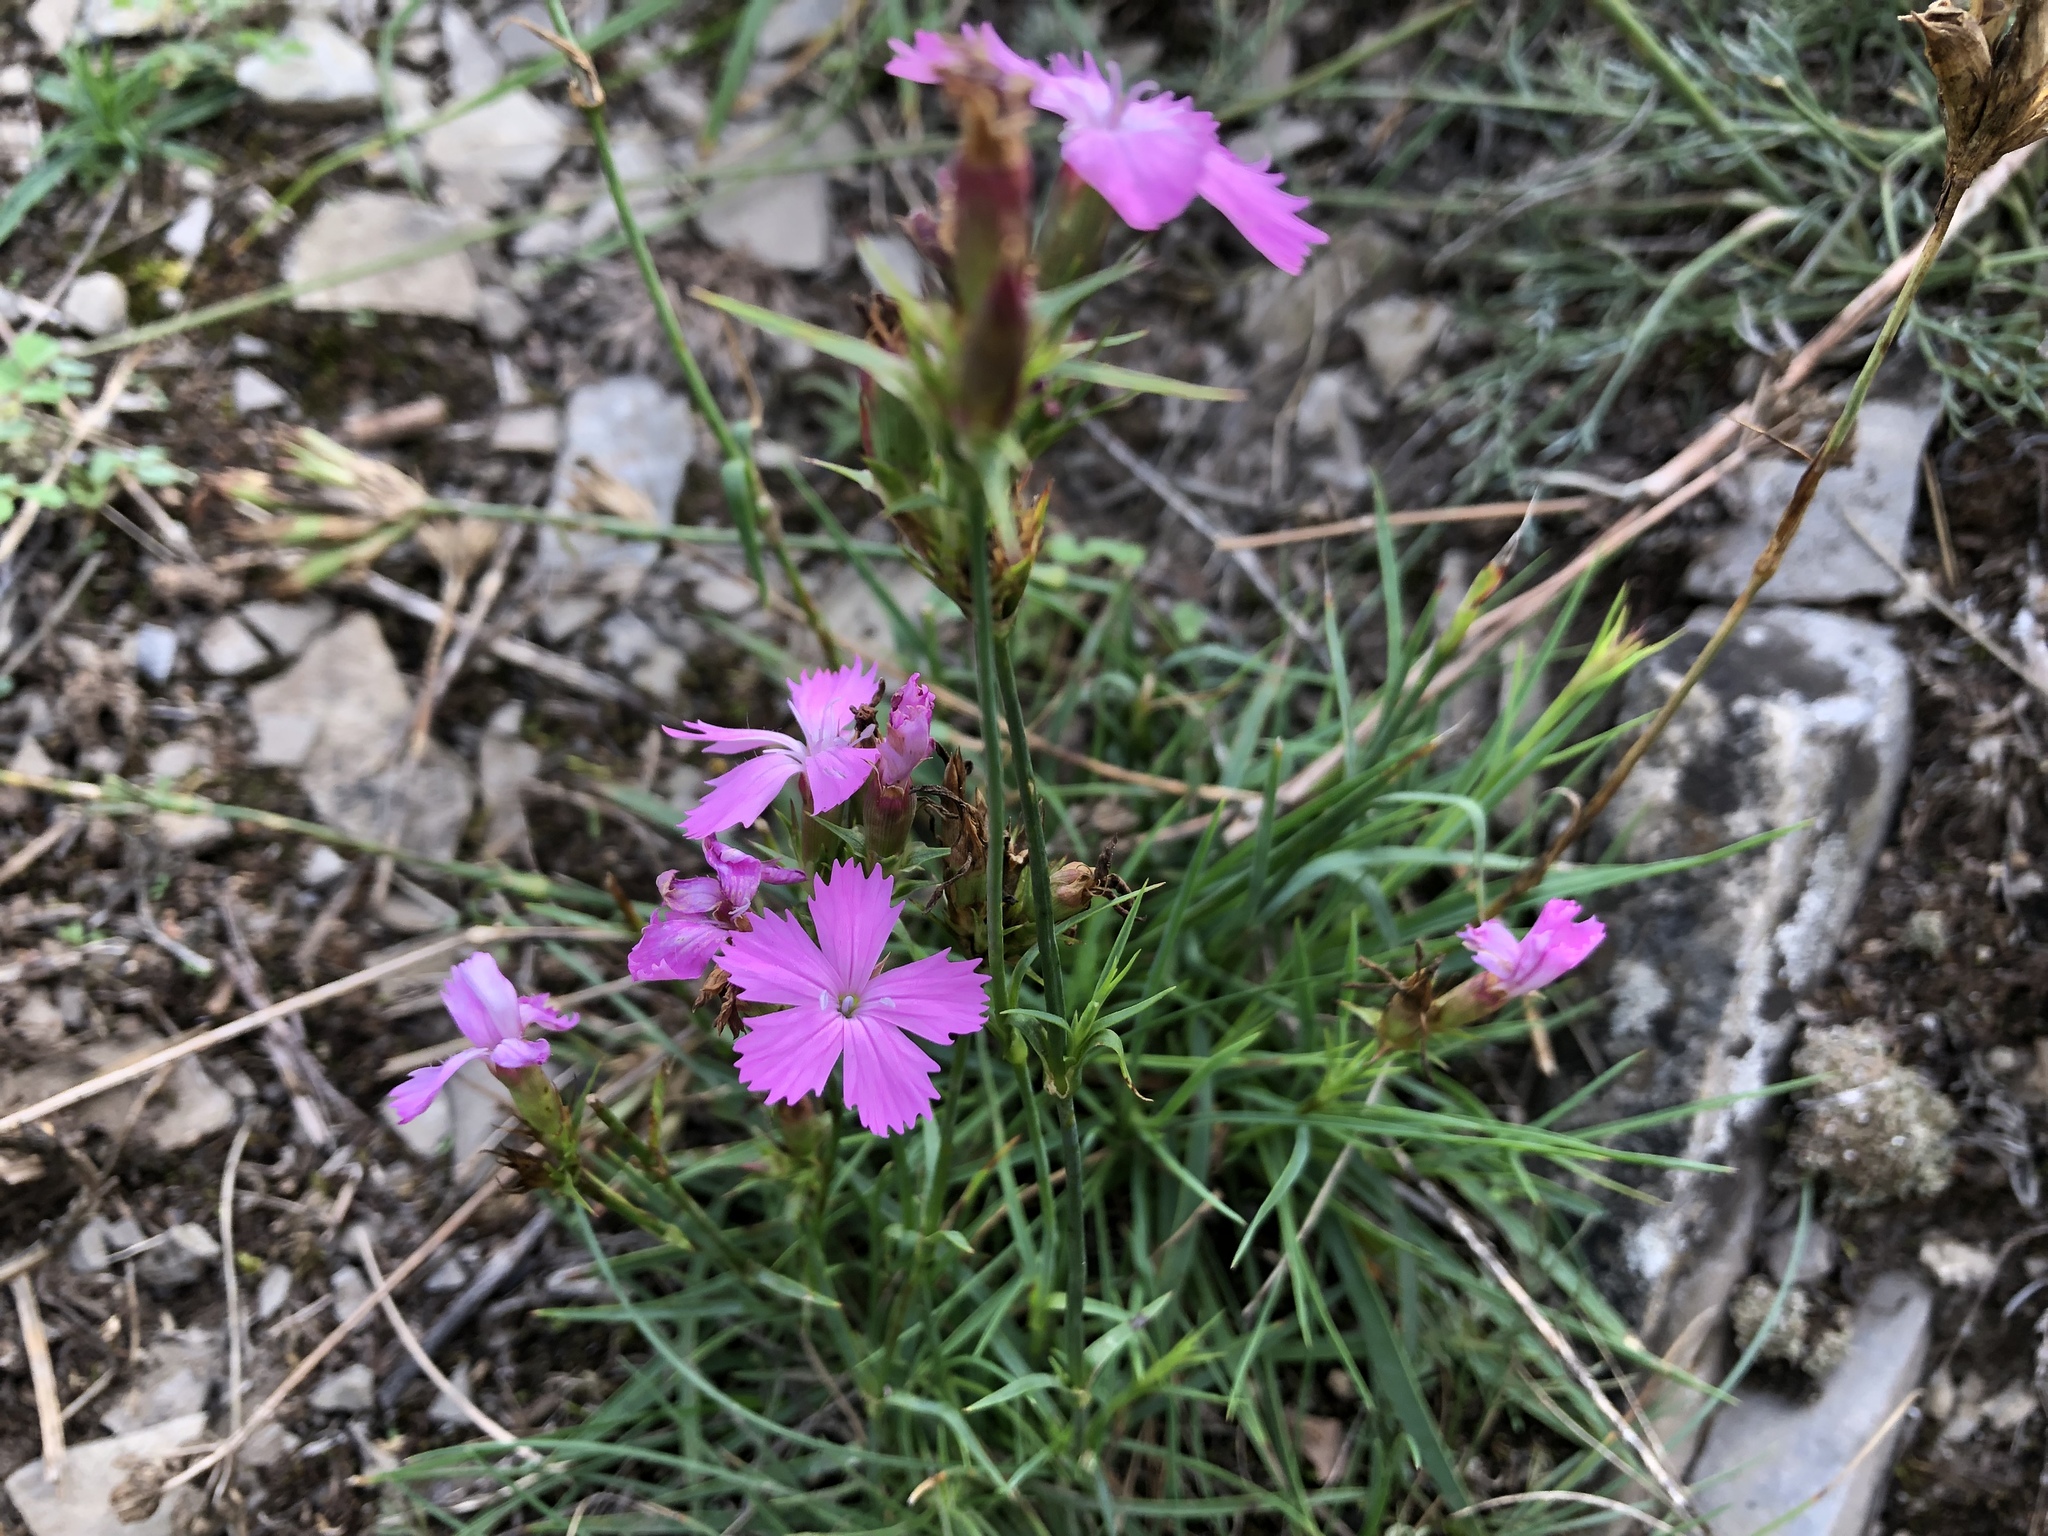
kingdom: Plantae
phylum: Tracheophyta
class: Magnoliopsida
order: Caryophyllales
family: Caryophyllaceae
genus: Dianthus
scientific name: Dianthus carthusianorum
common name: Carthusian pink
